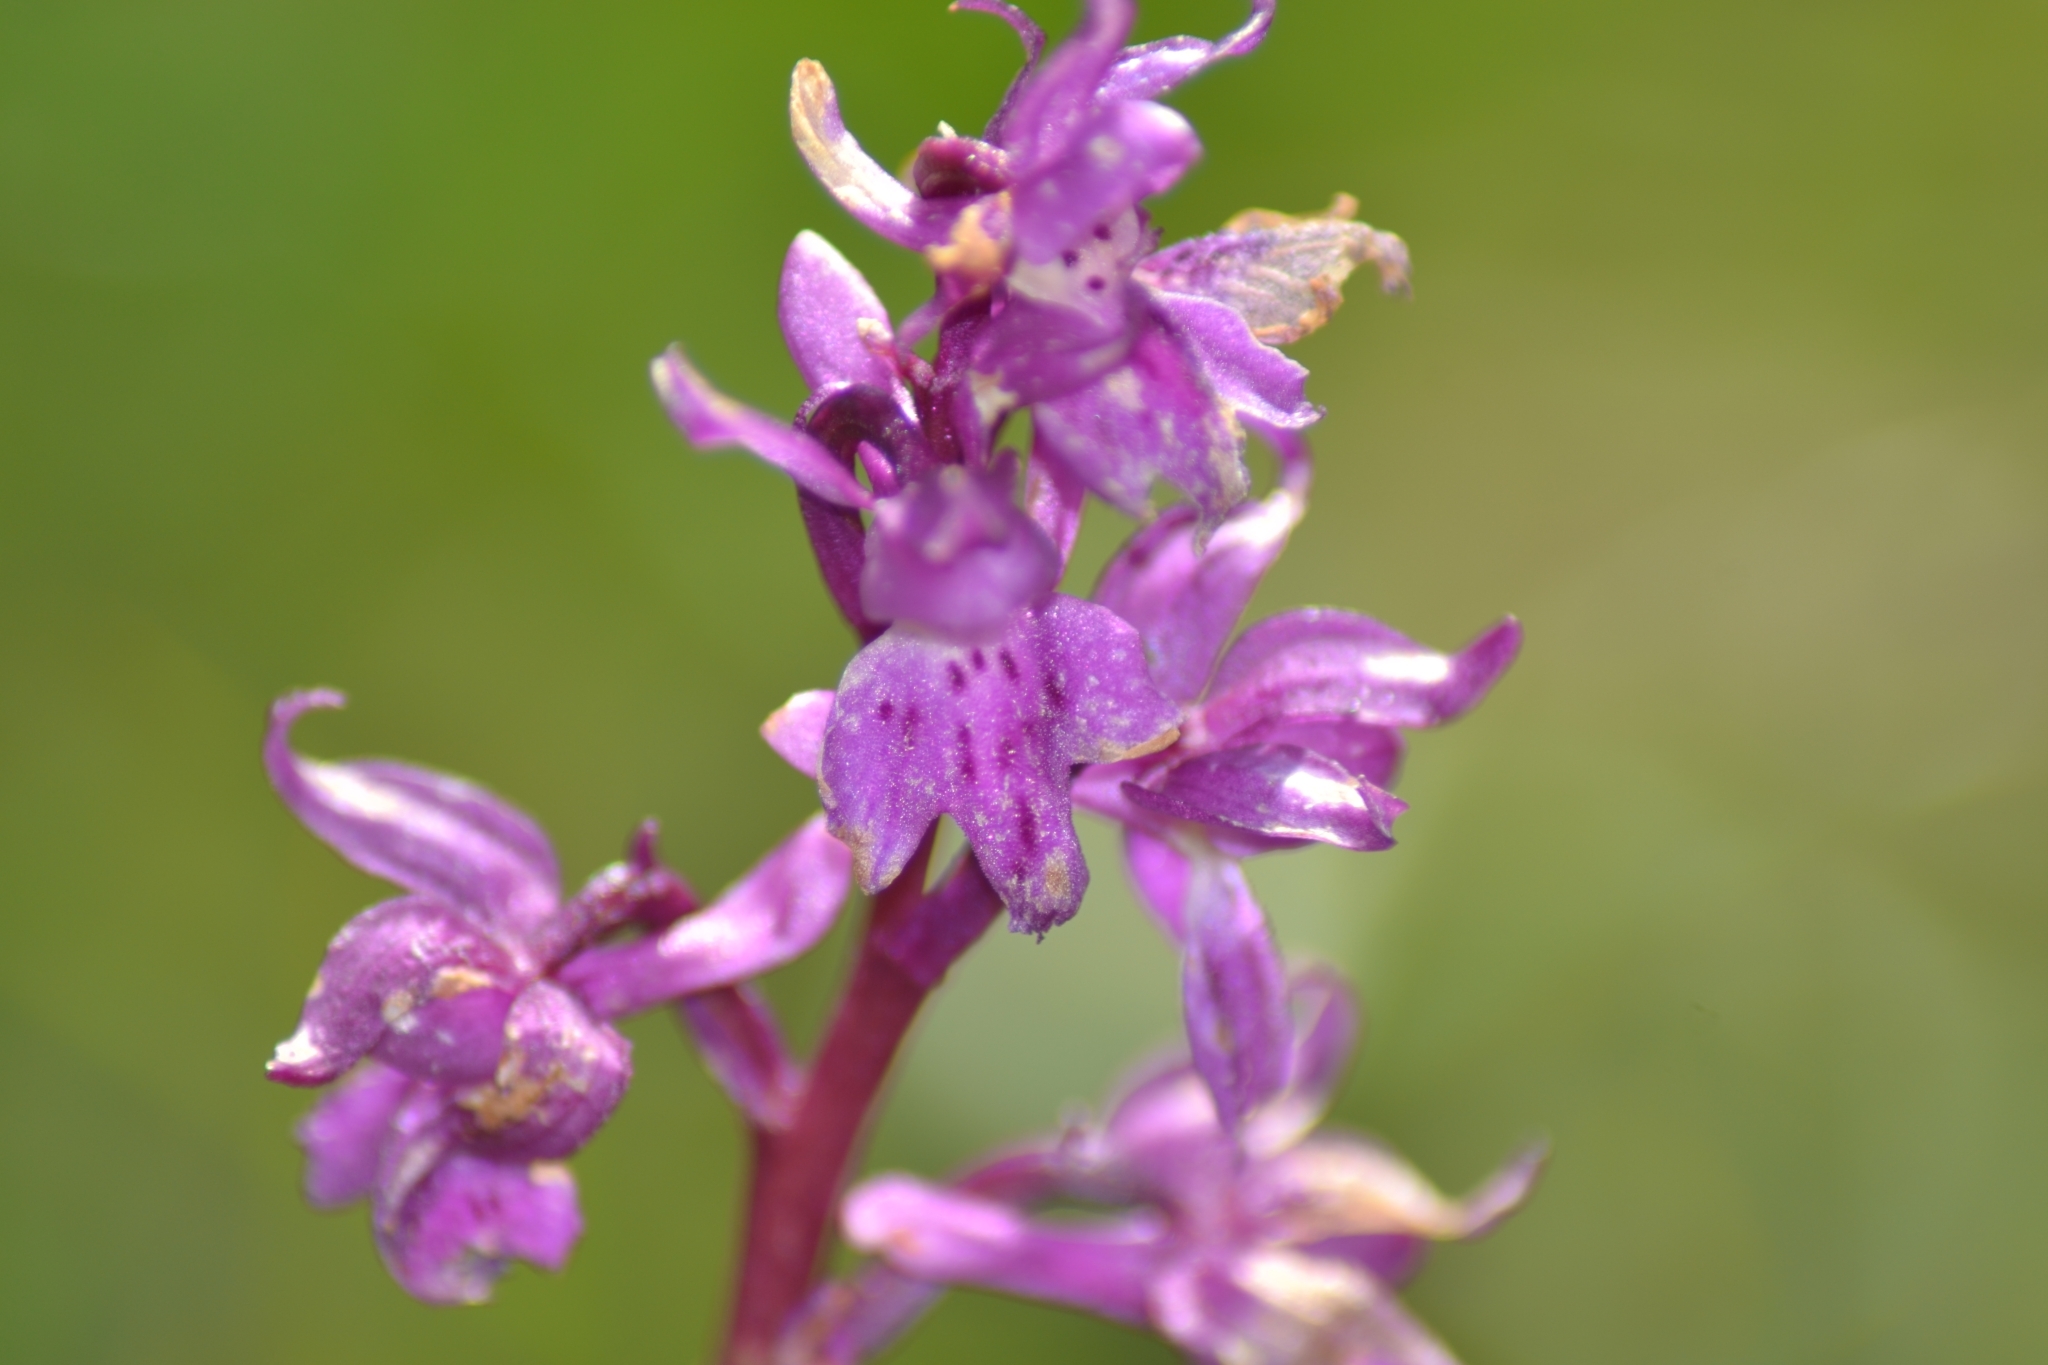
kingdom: Plantae
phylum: Tracheophyta
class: Liliopsida
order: Asparagales
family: Orchidaceae
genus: Orchis
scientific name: Orchis mascula
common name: Early-purple orchid
